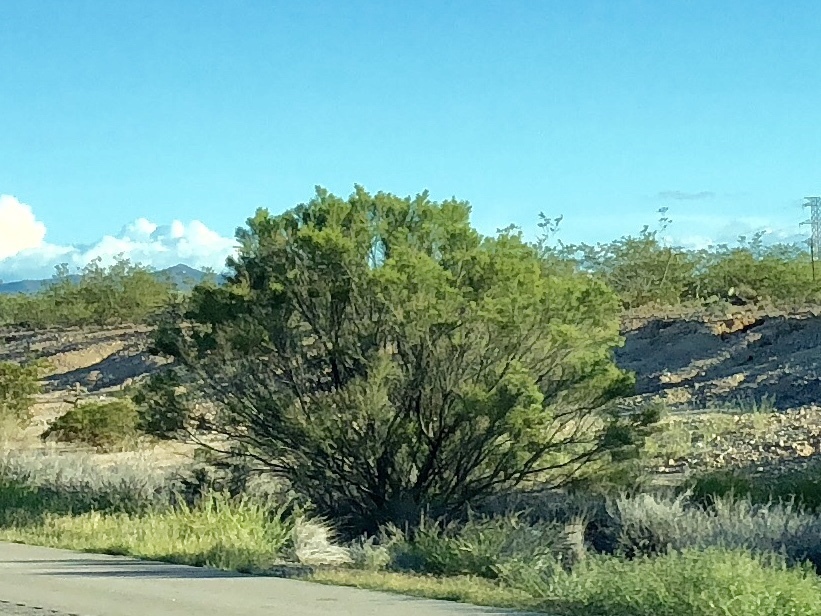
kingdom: Plantae
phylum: Tracheophyta
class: Magnoliopsida
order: Asterales
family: Asteraceae
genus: Baccharis
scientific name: Baccharis sarothroides
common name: Desert-broom
